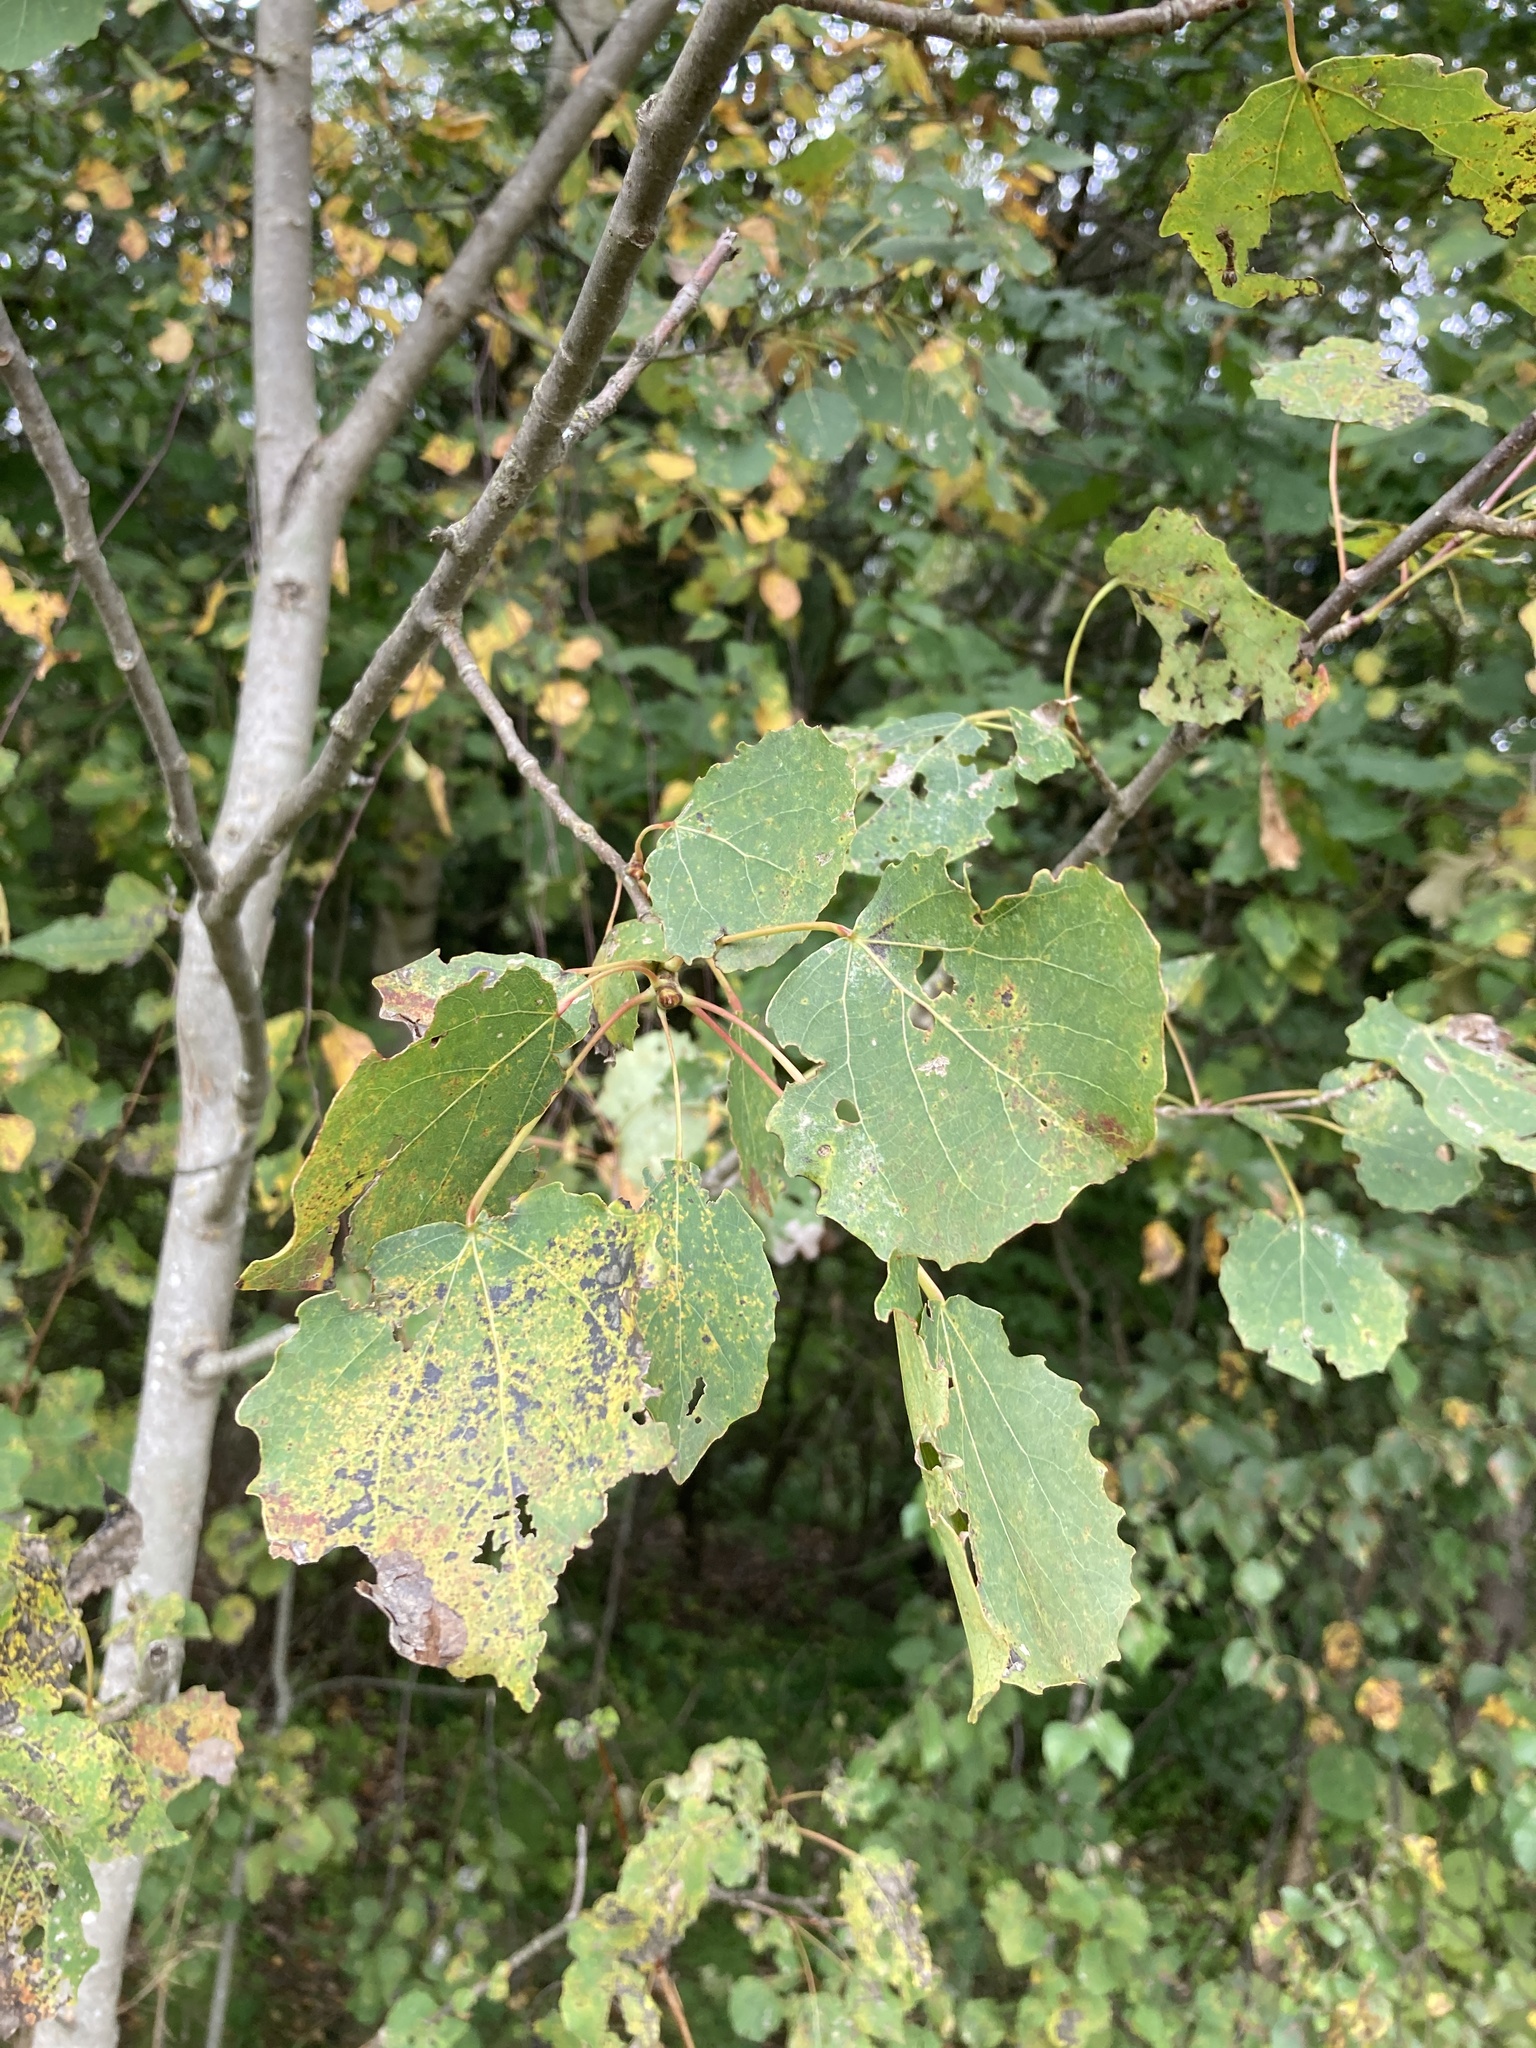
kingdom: Plantae
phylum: Tracheophyta
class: Magnoliopsida
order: Malpighiales
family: Salicaceae
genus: Populus
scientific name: Populus tremula
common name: European aspen
